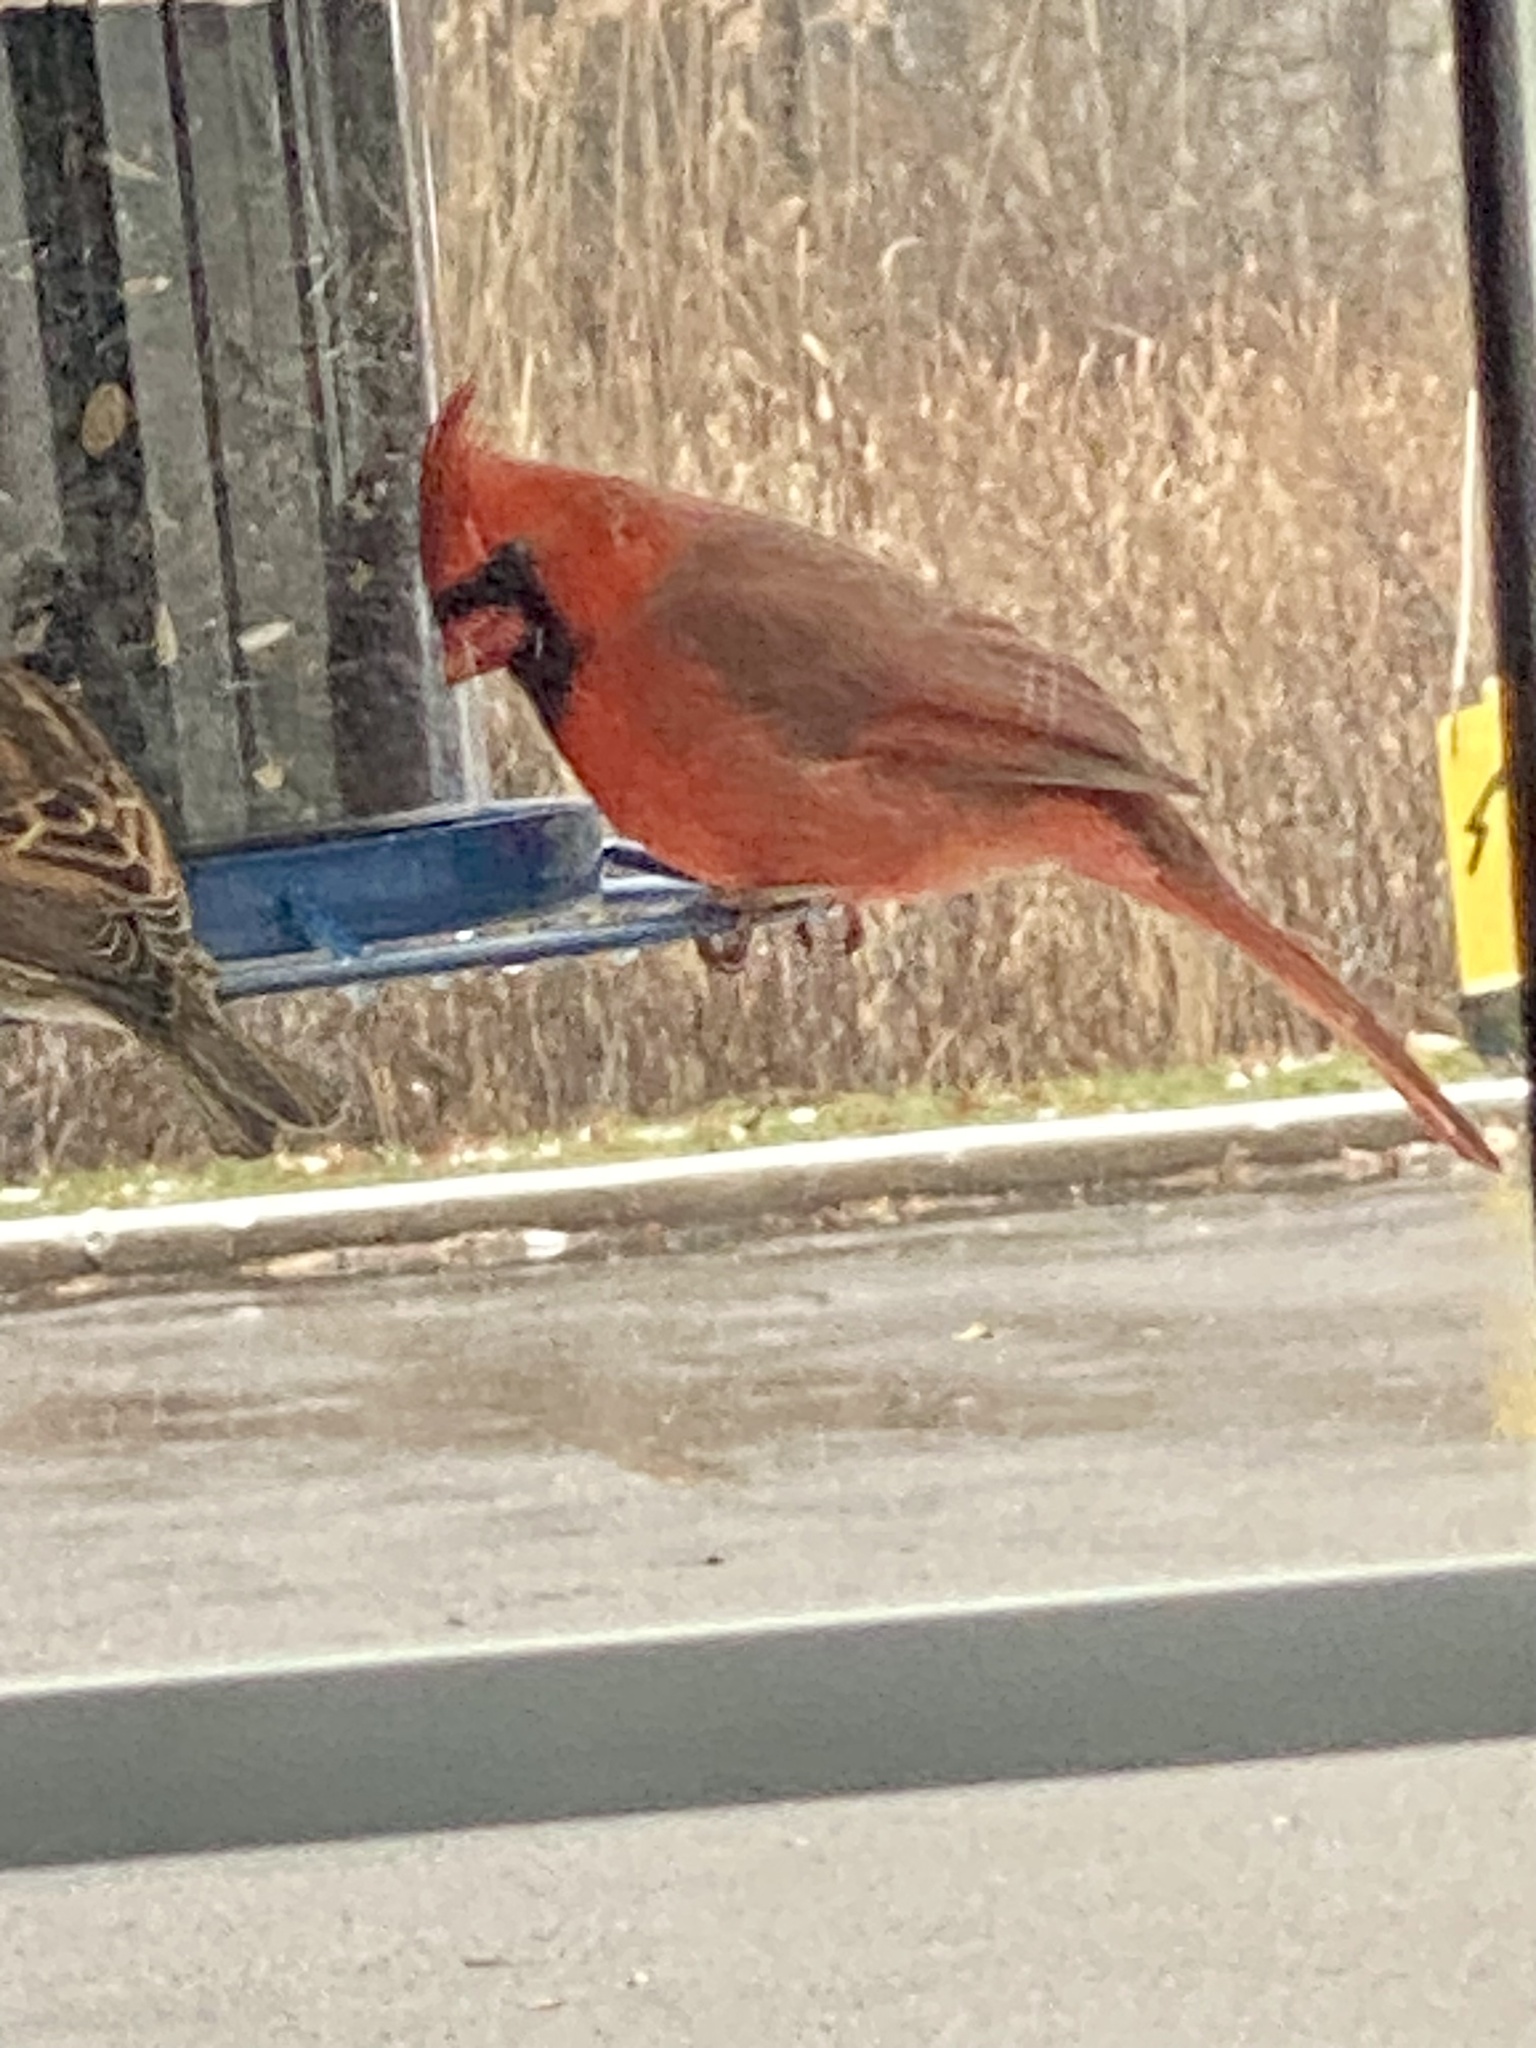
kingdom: Animalia
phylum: Chordata
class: Aves
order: Passeriformes
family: Cardinalidae
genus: Cardinalis
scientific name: Cardinalis cardinalis
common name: Northern cardinal
